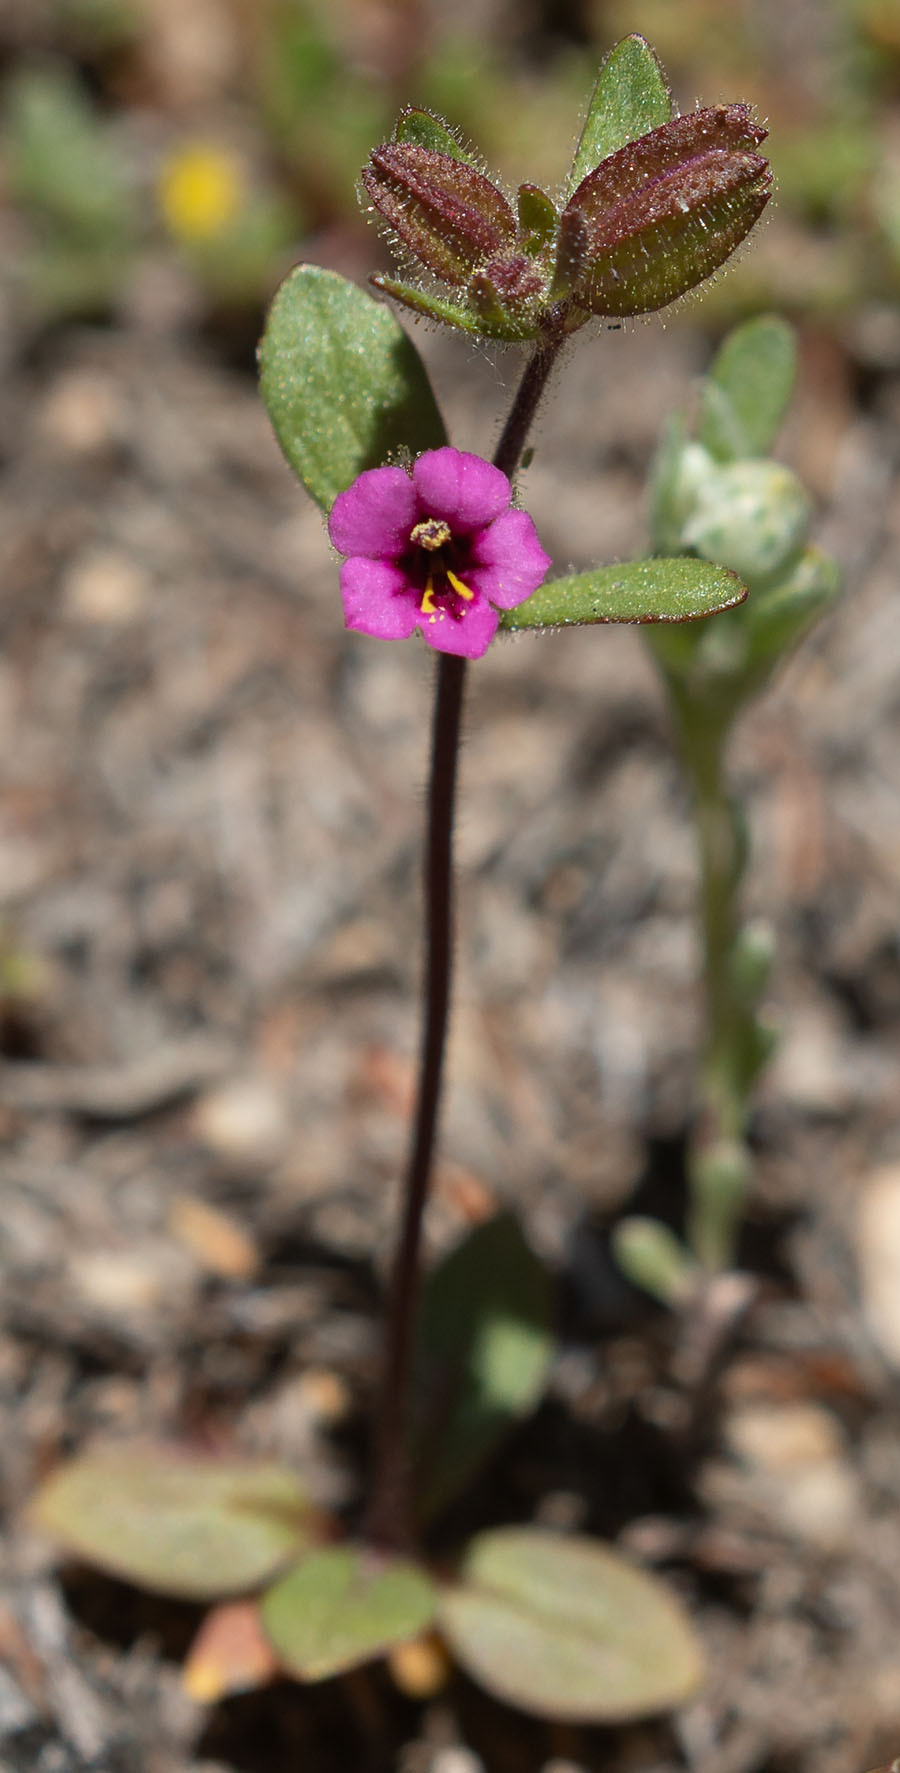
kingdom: Plantae
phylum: Tracheophyta
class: Magnoliopsida
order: Lamiales
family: Phrymaceae
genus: Diplacus
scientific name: Diplacus rattanii
